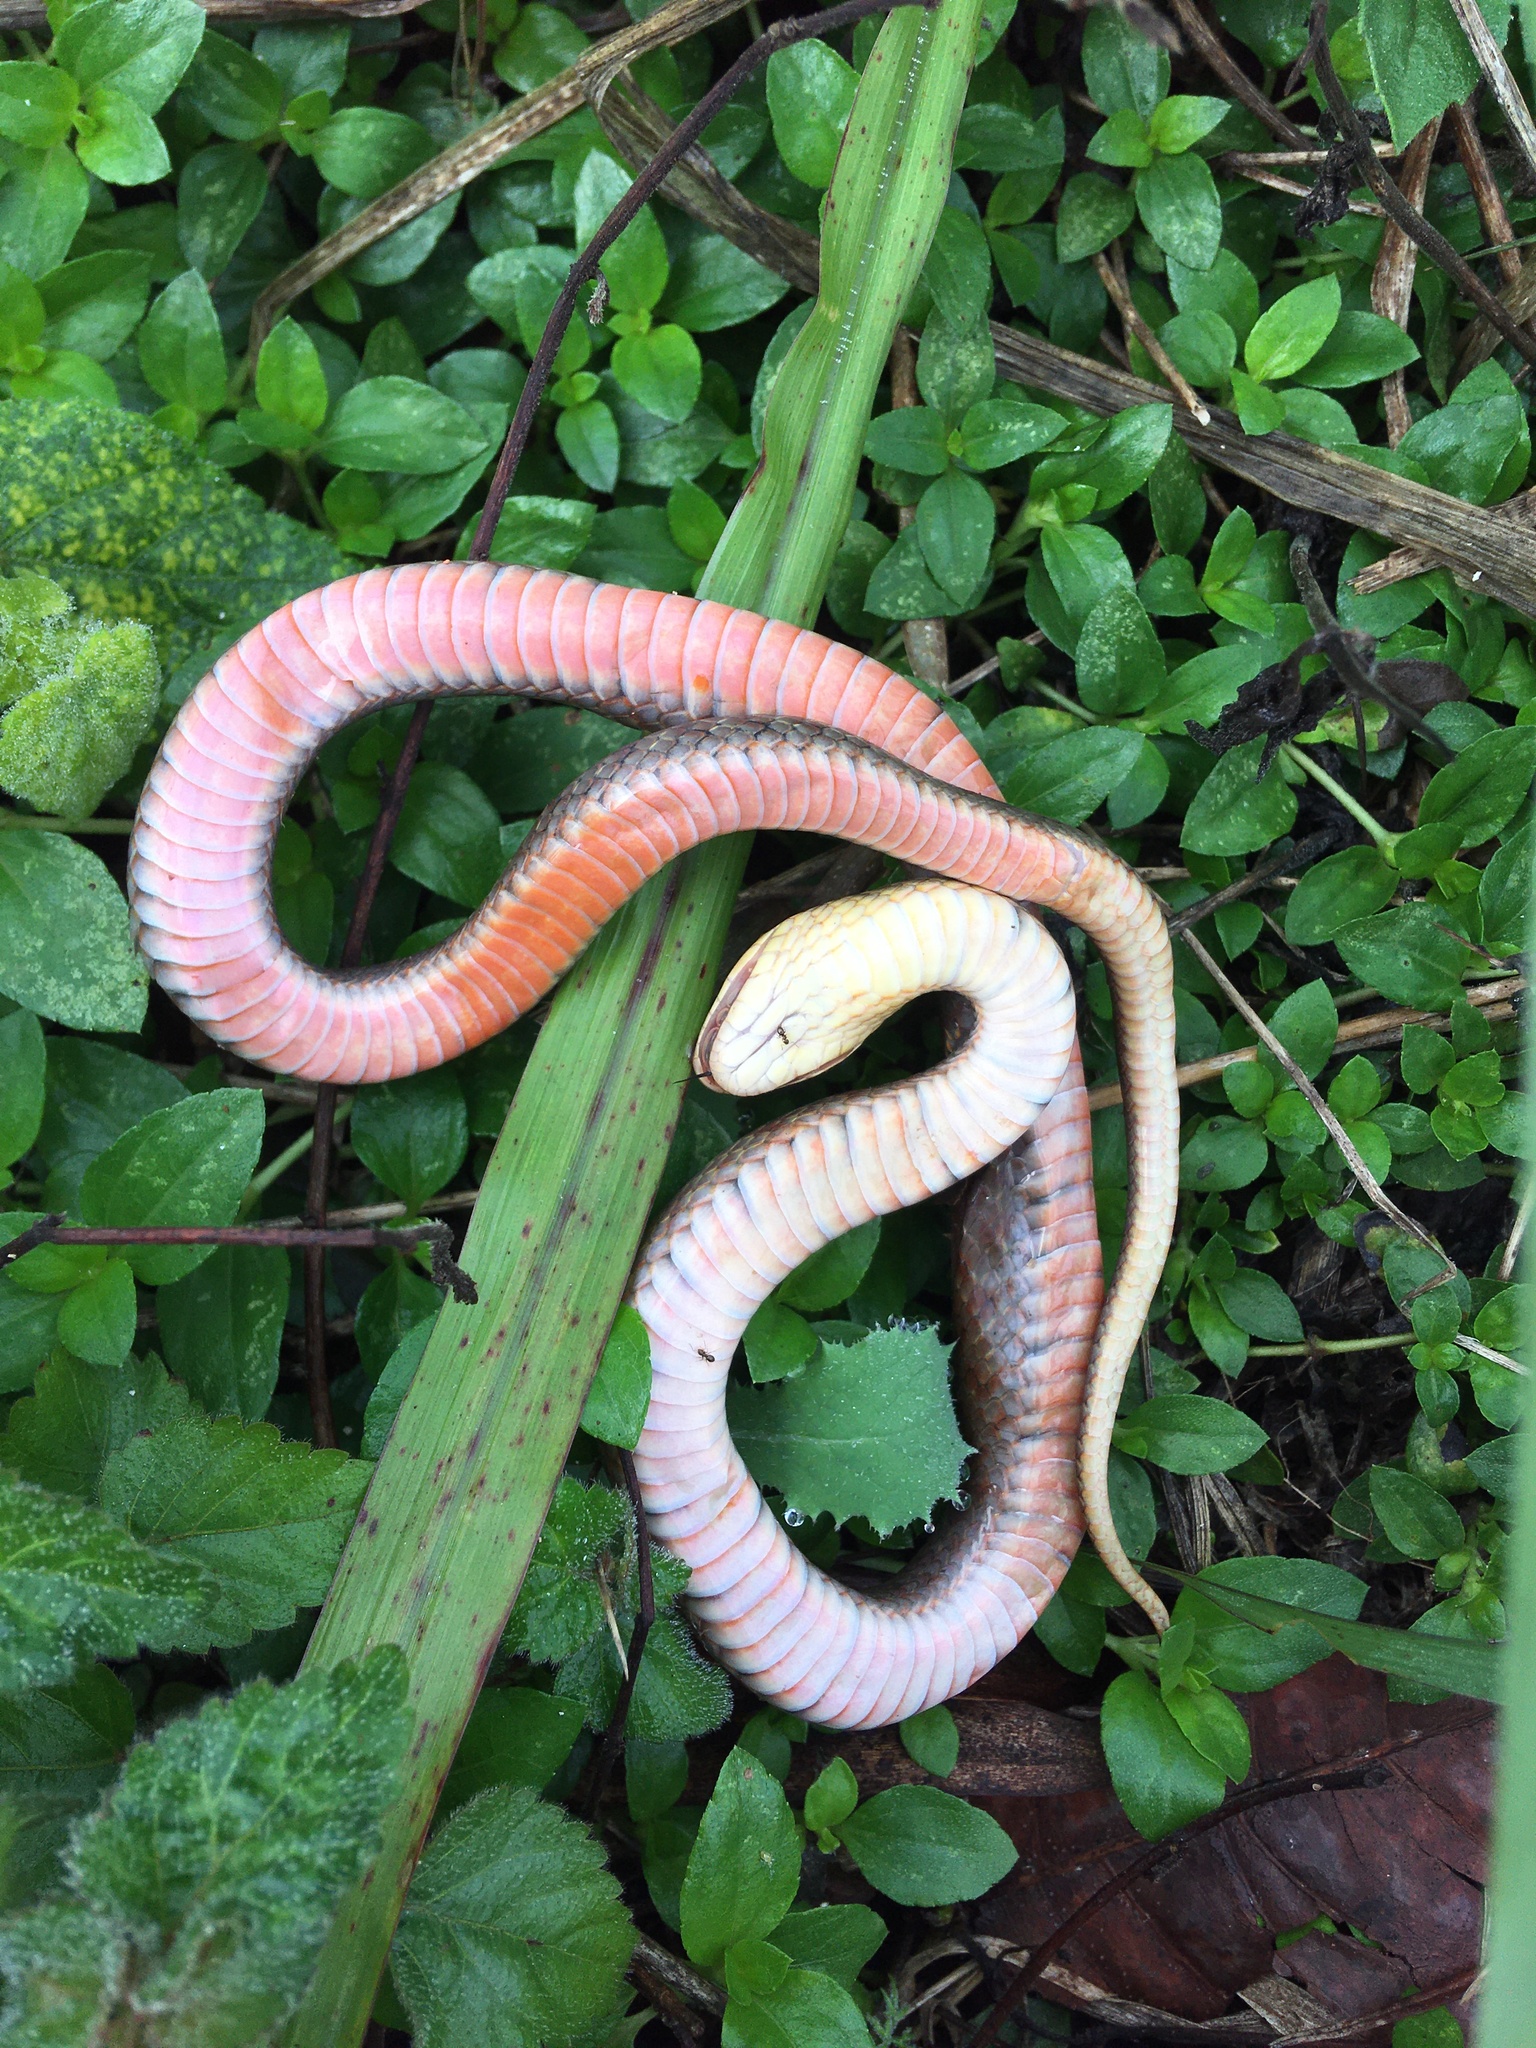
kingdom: Animalia
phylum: Chordata
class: Squamata
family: Colubridae
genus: Erythrolamprus
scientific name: Erythrolamprus poecilogyrus
